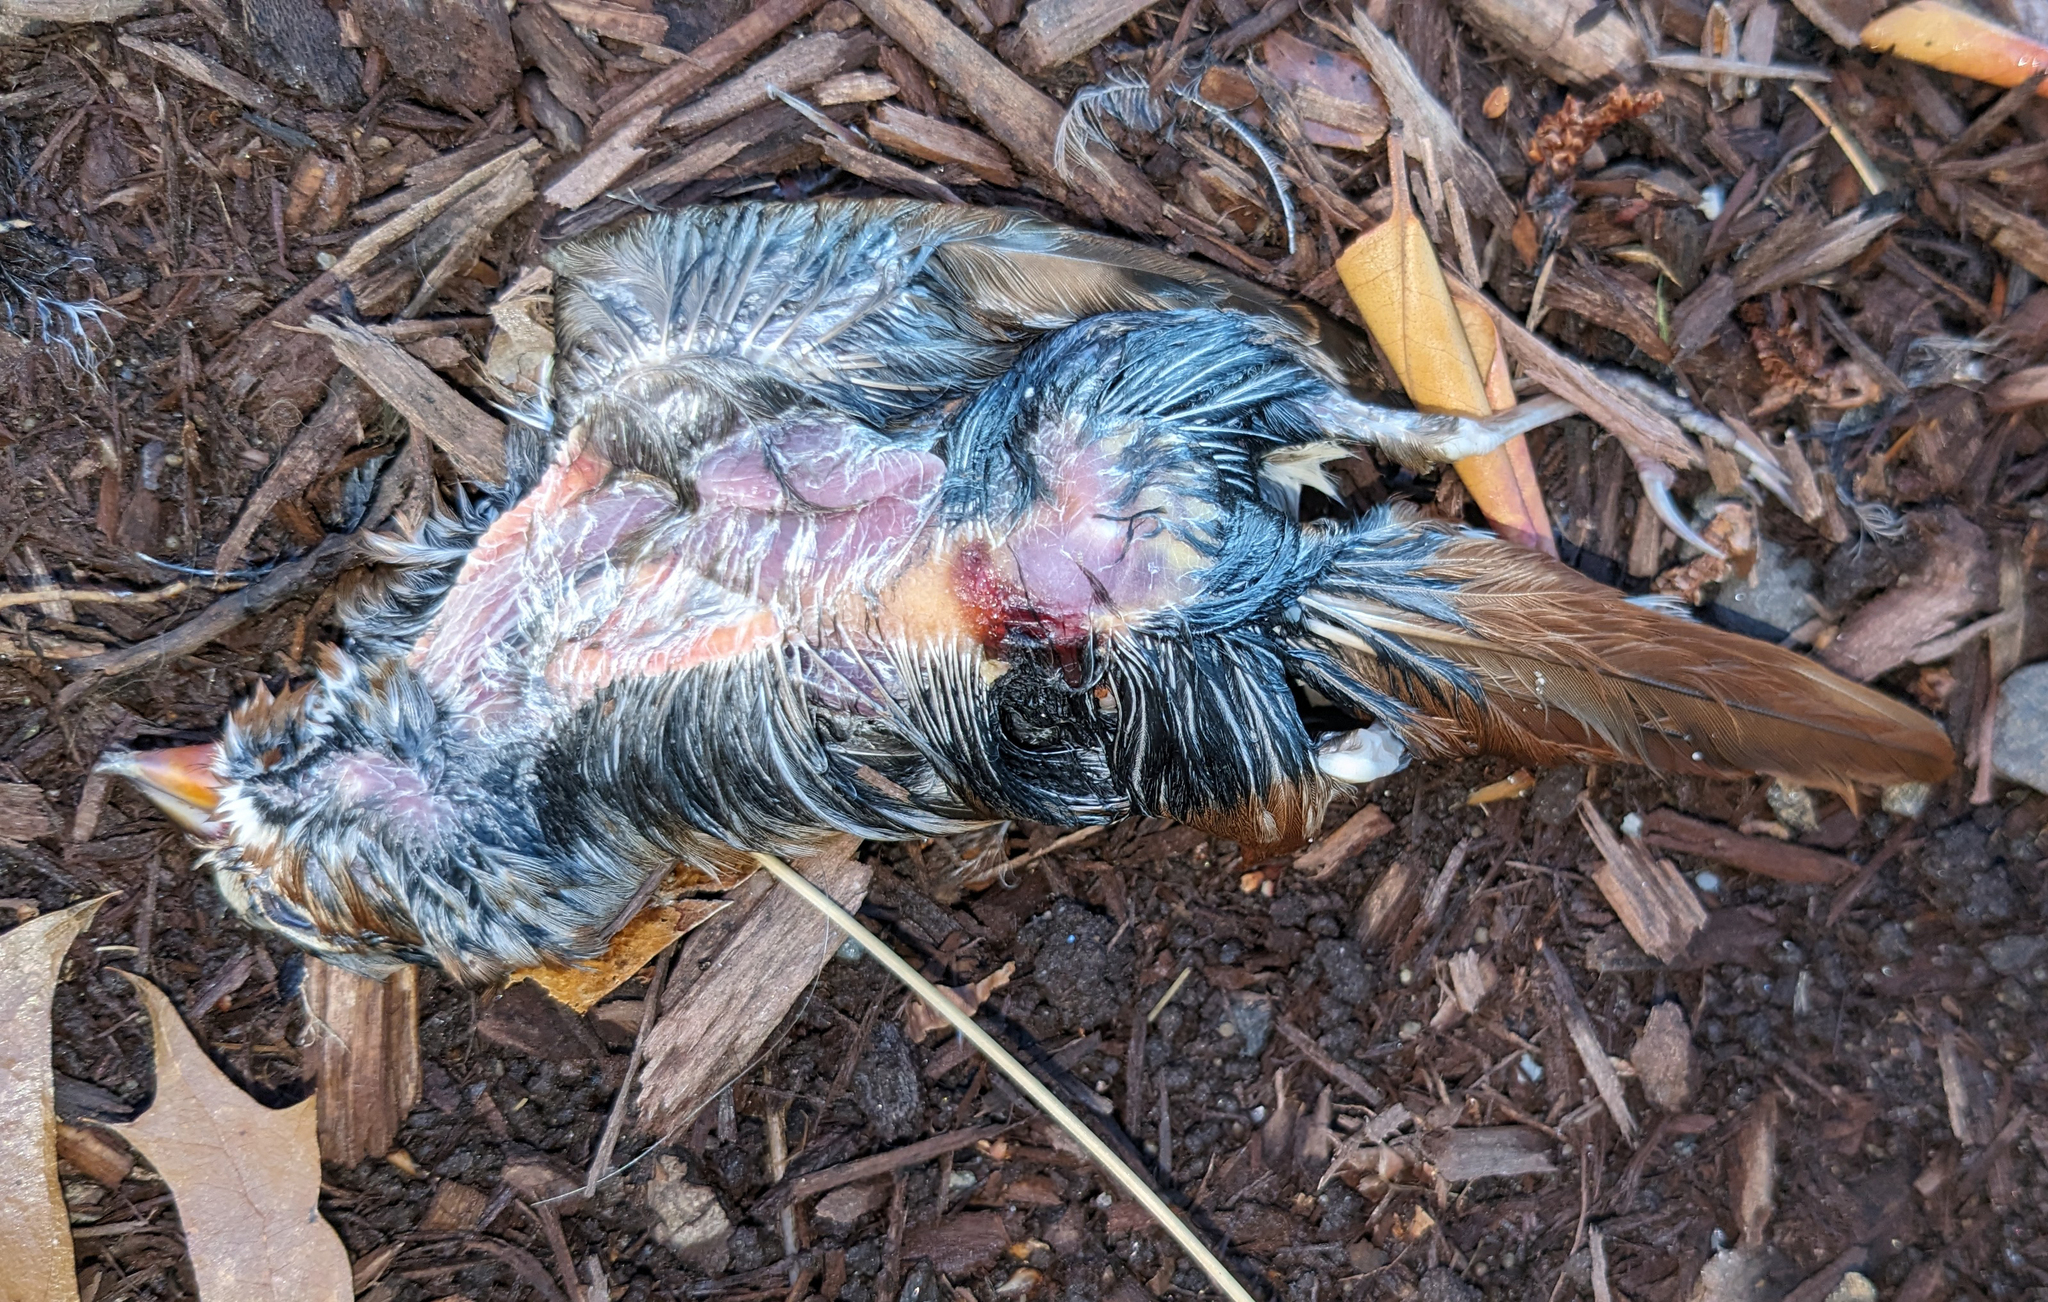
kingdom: Animalia
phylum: Chordata
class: Aves
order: Passeriformes
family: Passerellidae
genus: Passerella
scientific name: Passerella iliaca
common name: Fox sparrow
